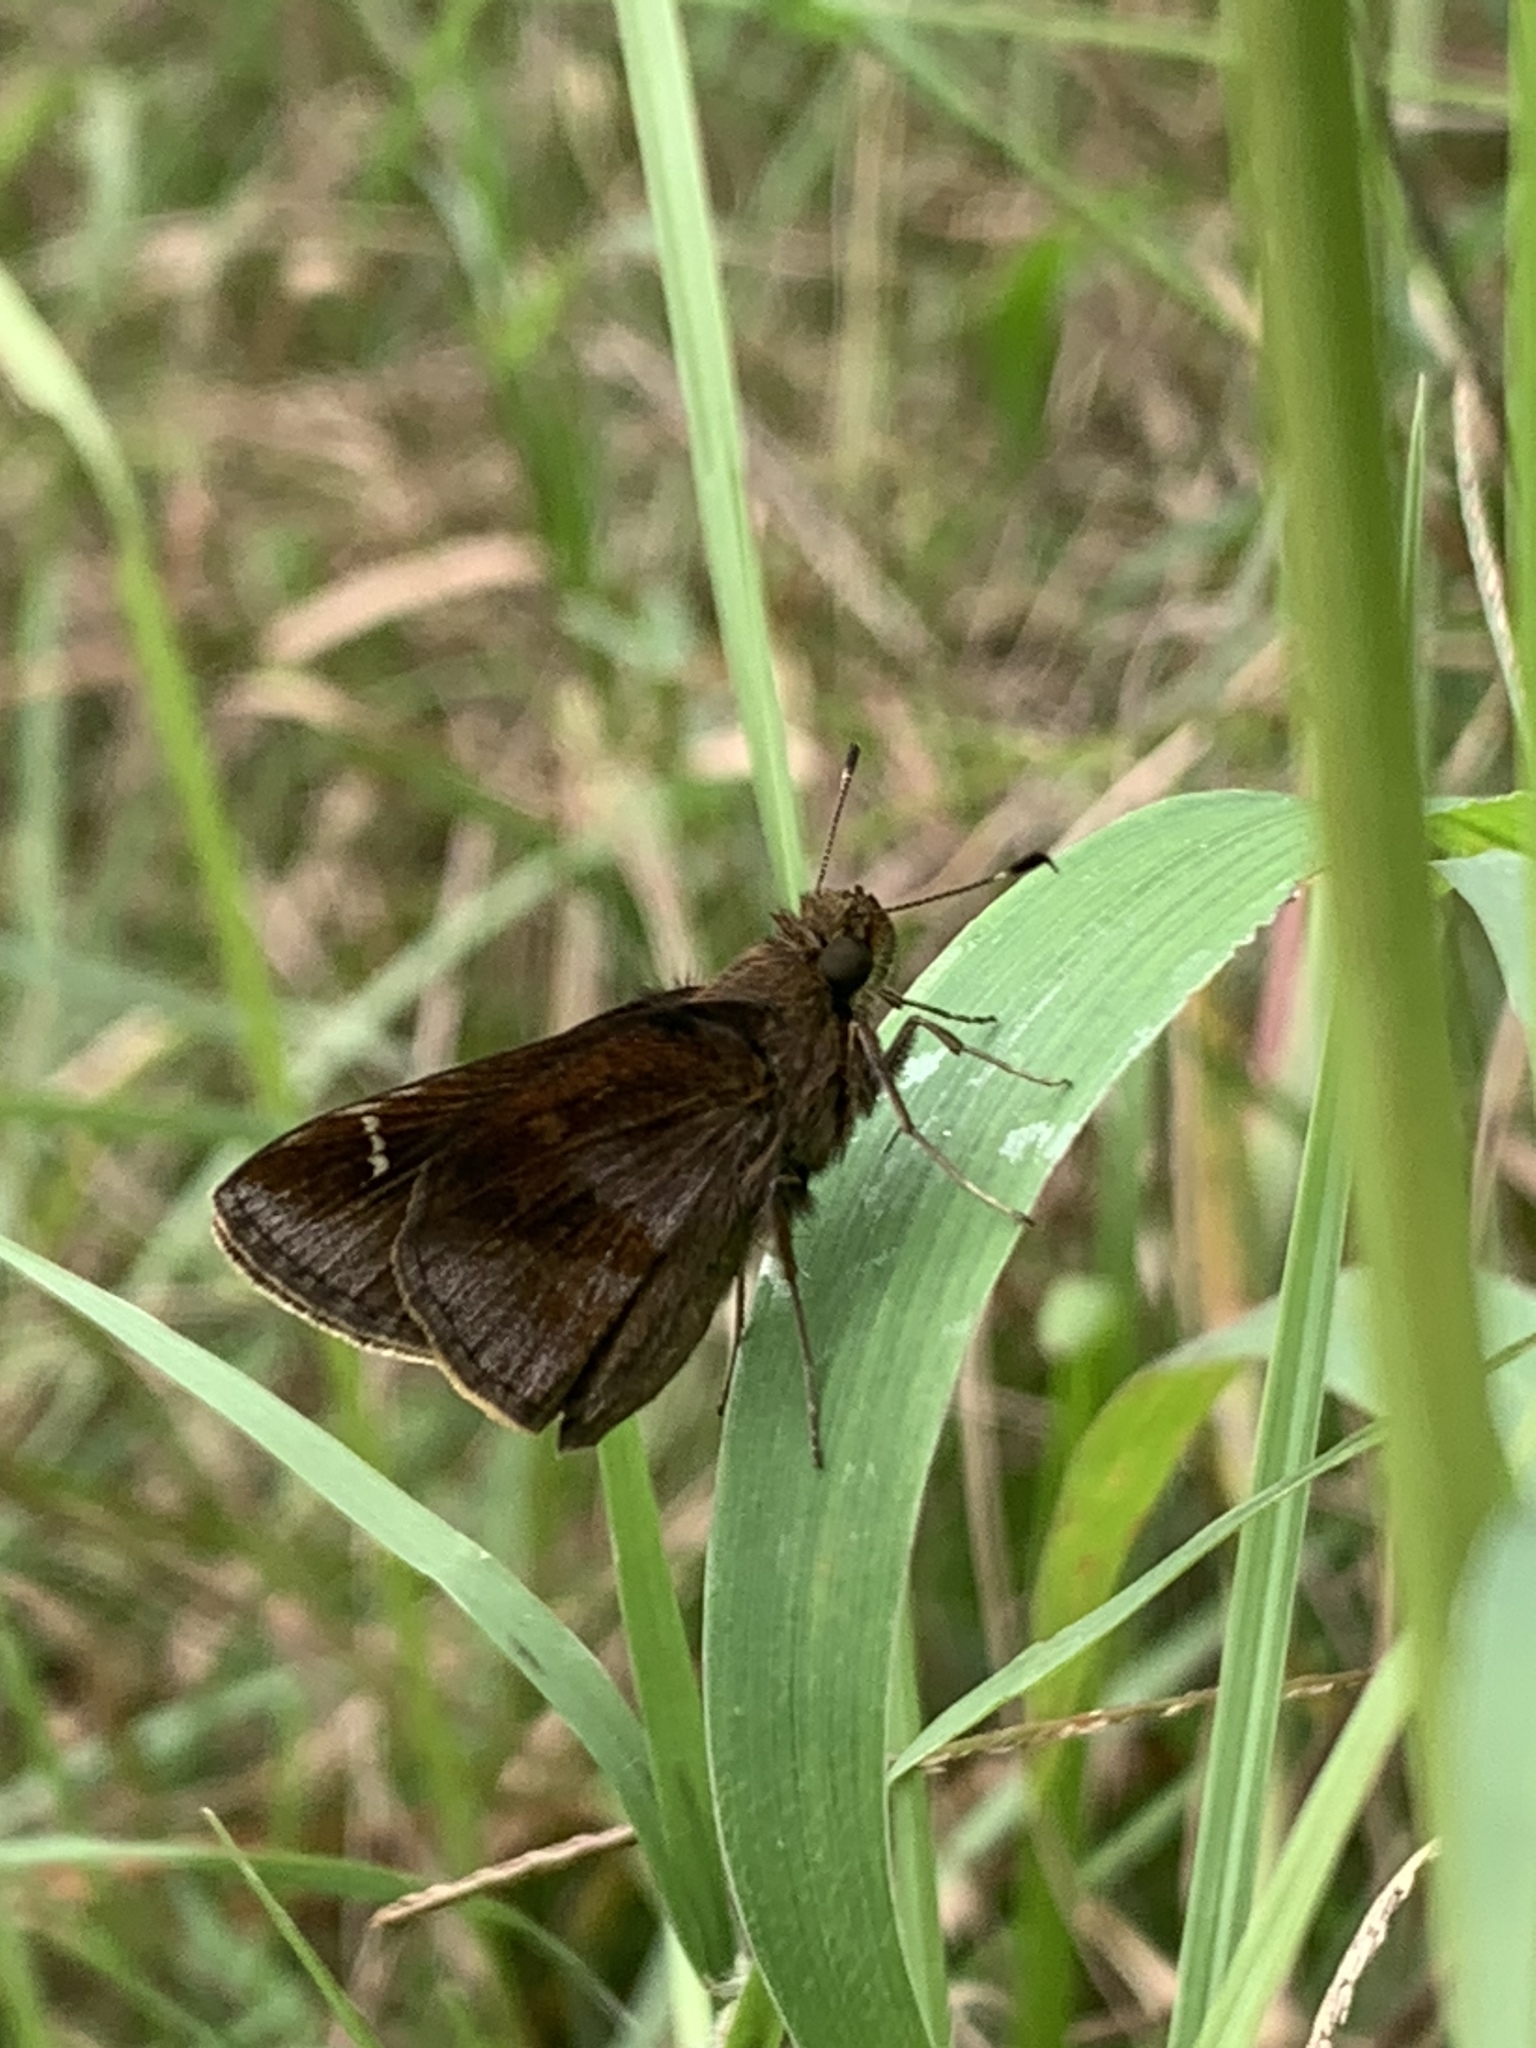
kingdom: Animalia
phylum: Arthropoda
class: Insecta
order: Lepidoptera
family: Hesperiidae
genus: Lerema
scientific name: Lerema accius
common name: Clouded skipper
